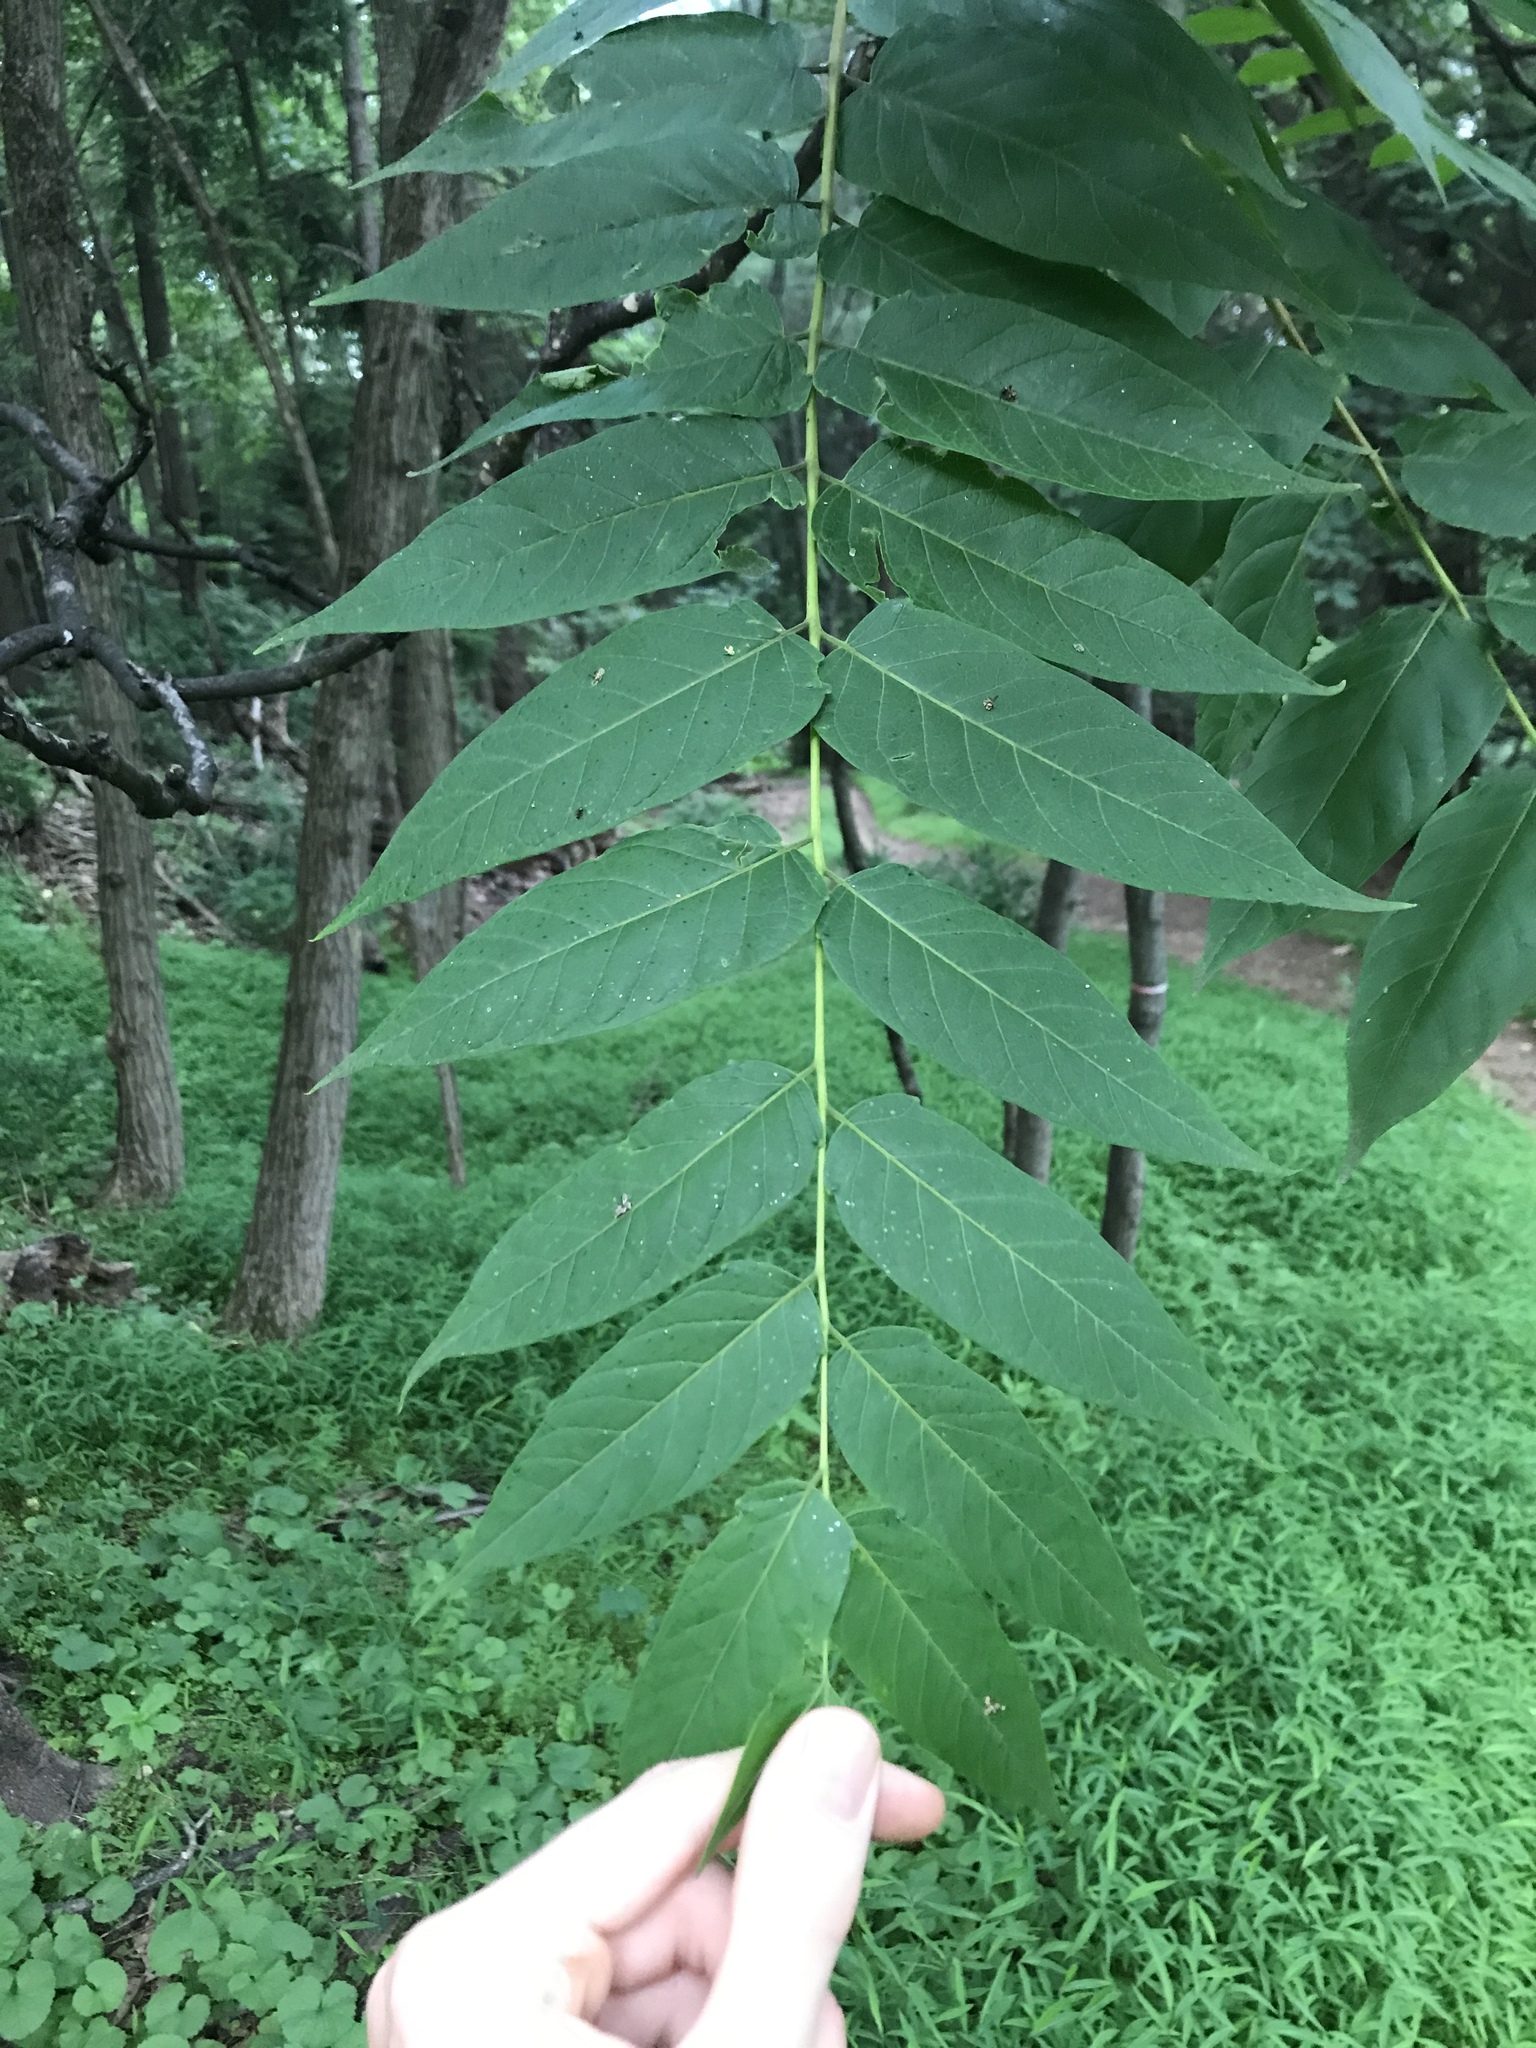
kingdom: Plantae
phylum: Tracheophyta
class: Magnoliopsida
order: Sapindales
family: Simaroubaceae
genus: Ailanthus
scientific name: Ailanthus altissima
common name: Tree-of-heaven
